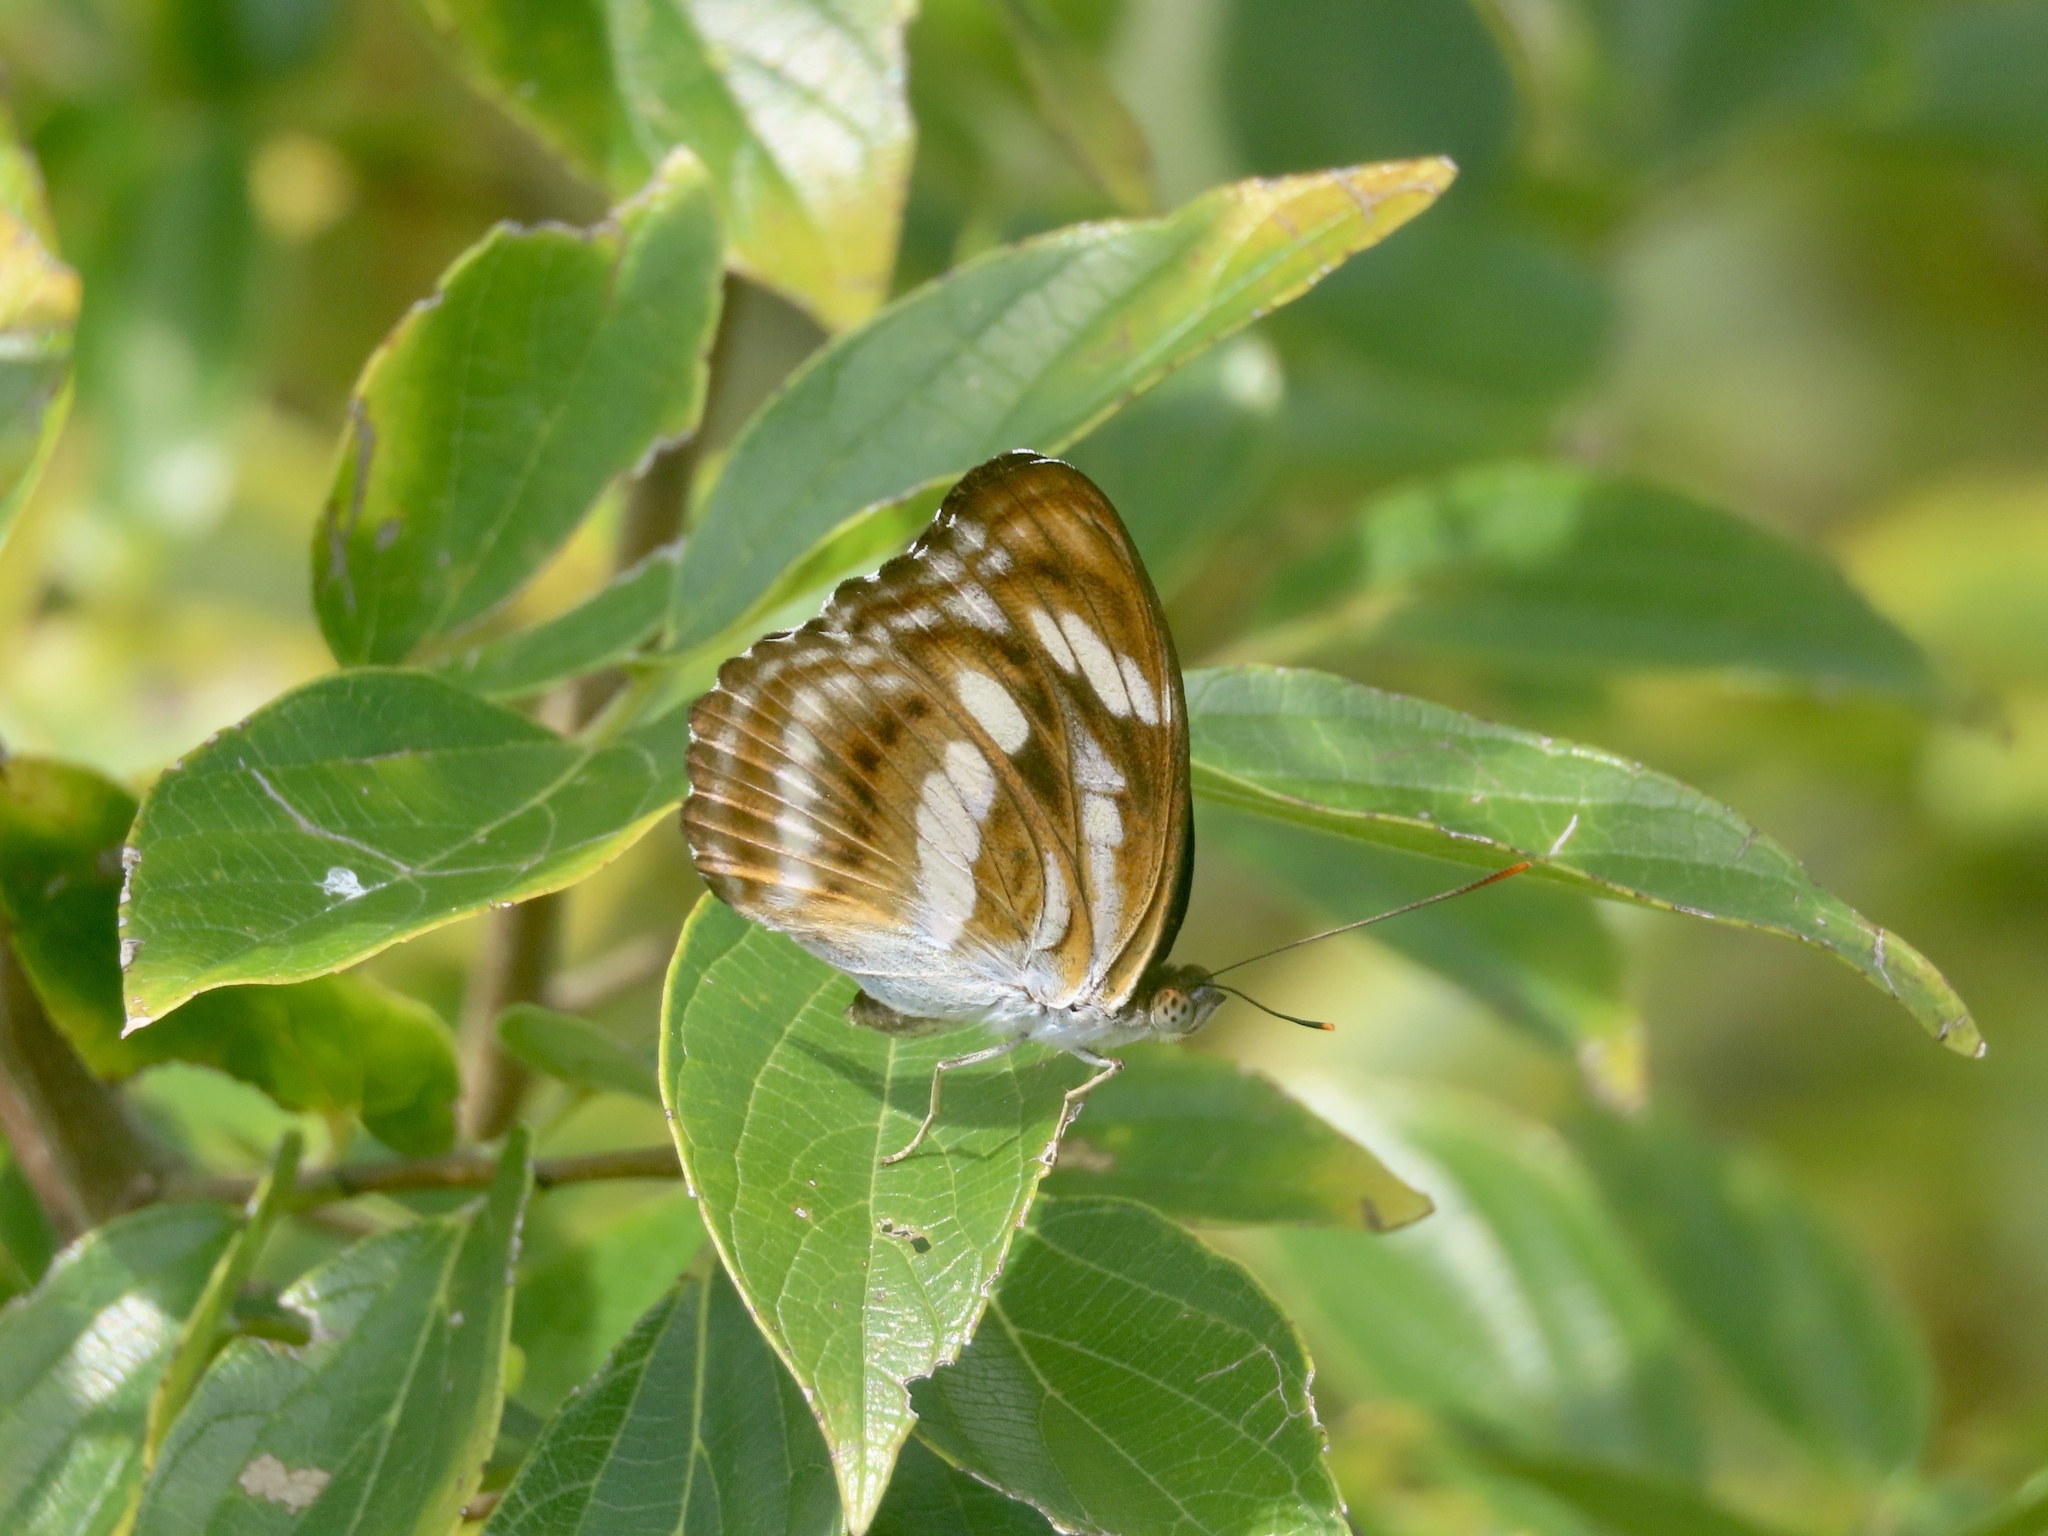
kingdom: Animalia
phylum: Arthropoda
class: Insecta
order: Lepidoptera
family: Nymphalidae
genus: Parathyma
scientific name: Parathyma nefte
